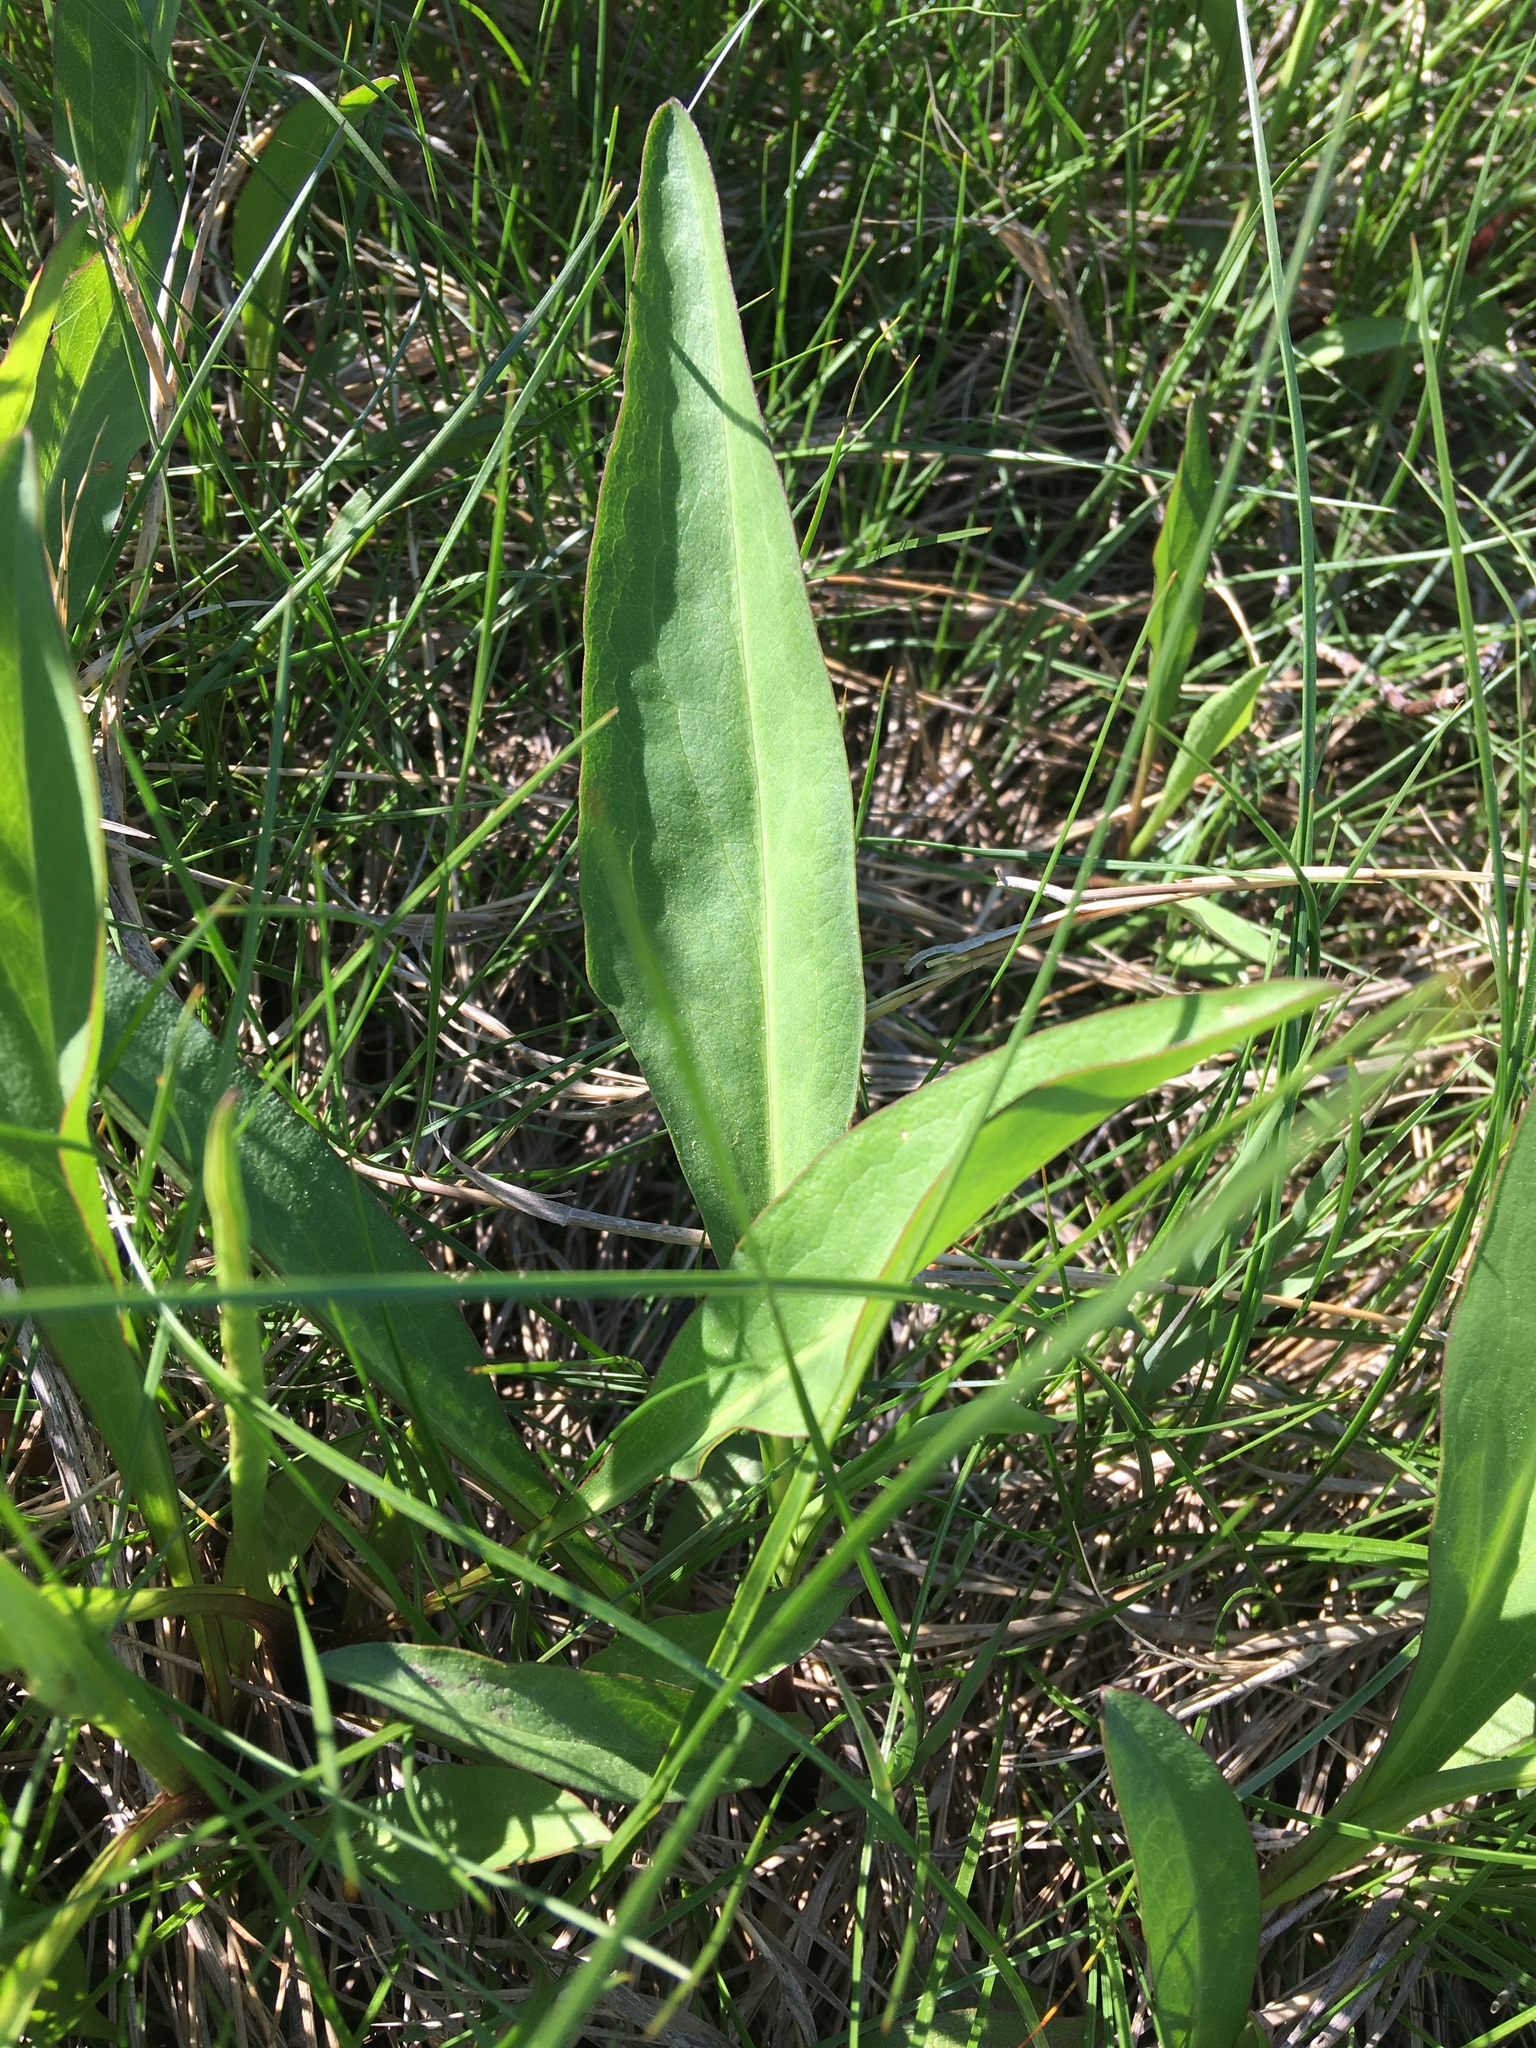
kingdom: Plantae
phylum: Tracheophyta
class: Magnoliopsida
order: Asterales
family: Asteraceae
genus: Solidago
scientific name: Solidago sempervirens
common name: Salt-marsh goldenrod
